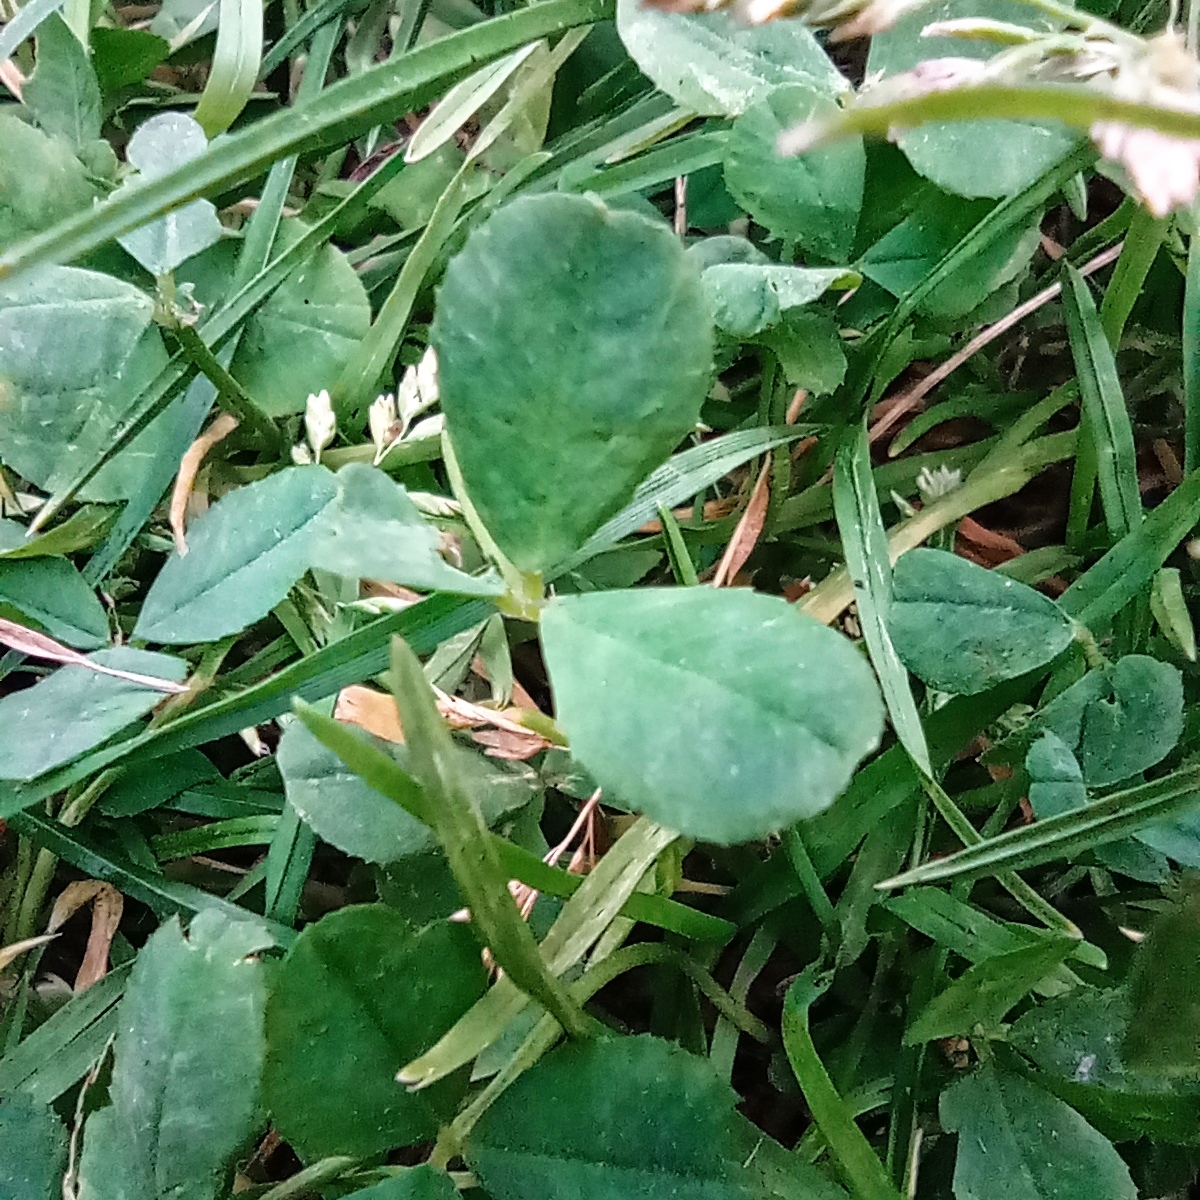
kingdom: Plantae
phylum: Tracheophyta
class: Magnoliopsida
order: Fabales
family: Fabaceae
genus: Trifolium
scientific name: Trifolium repens
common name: White clover
